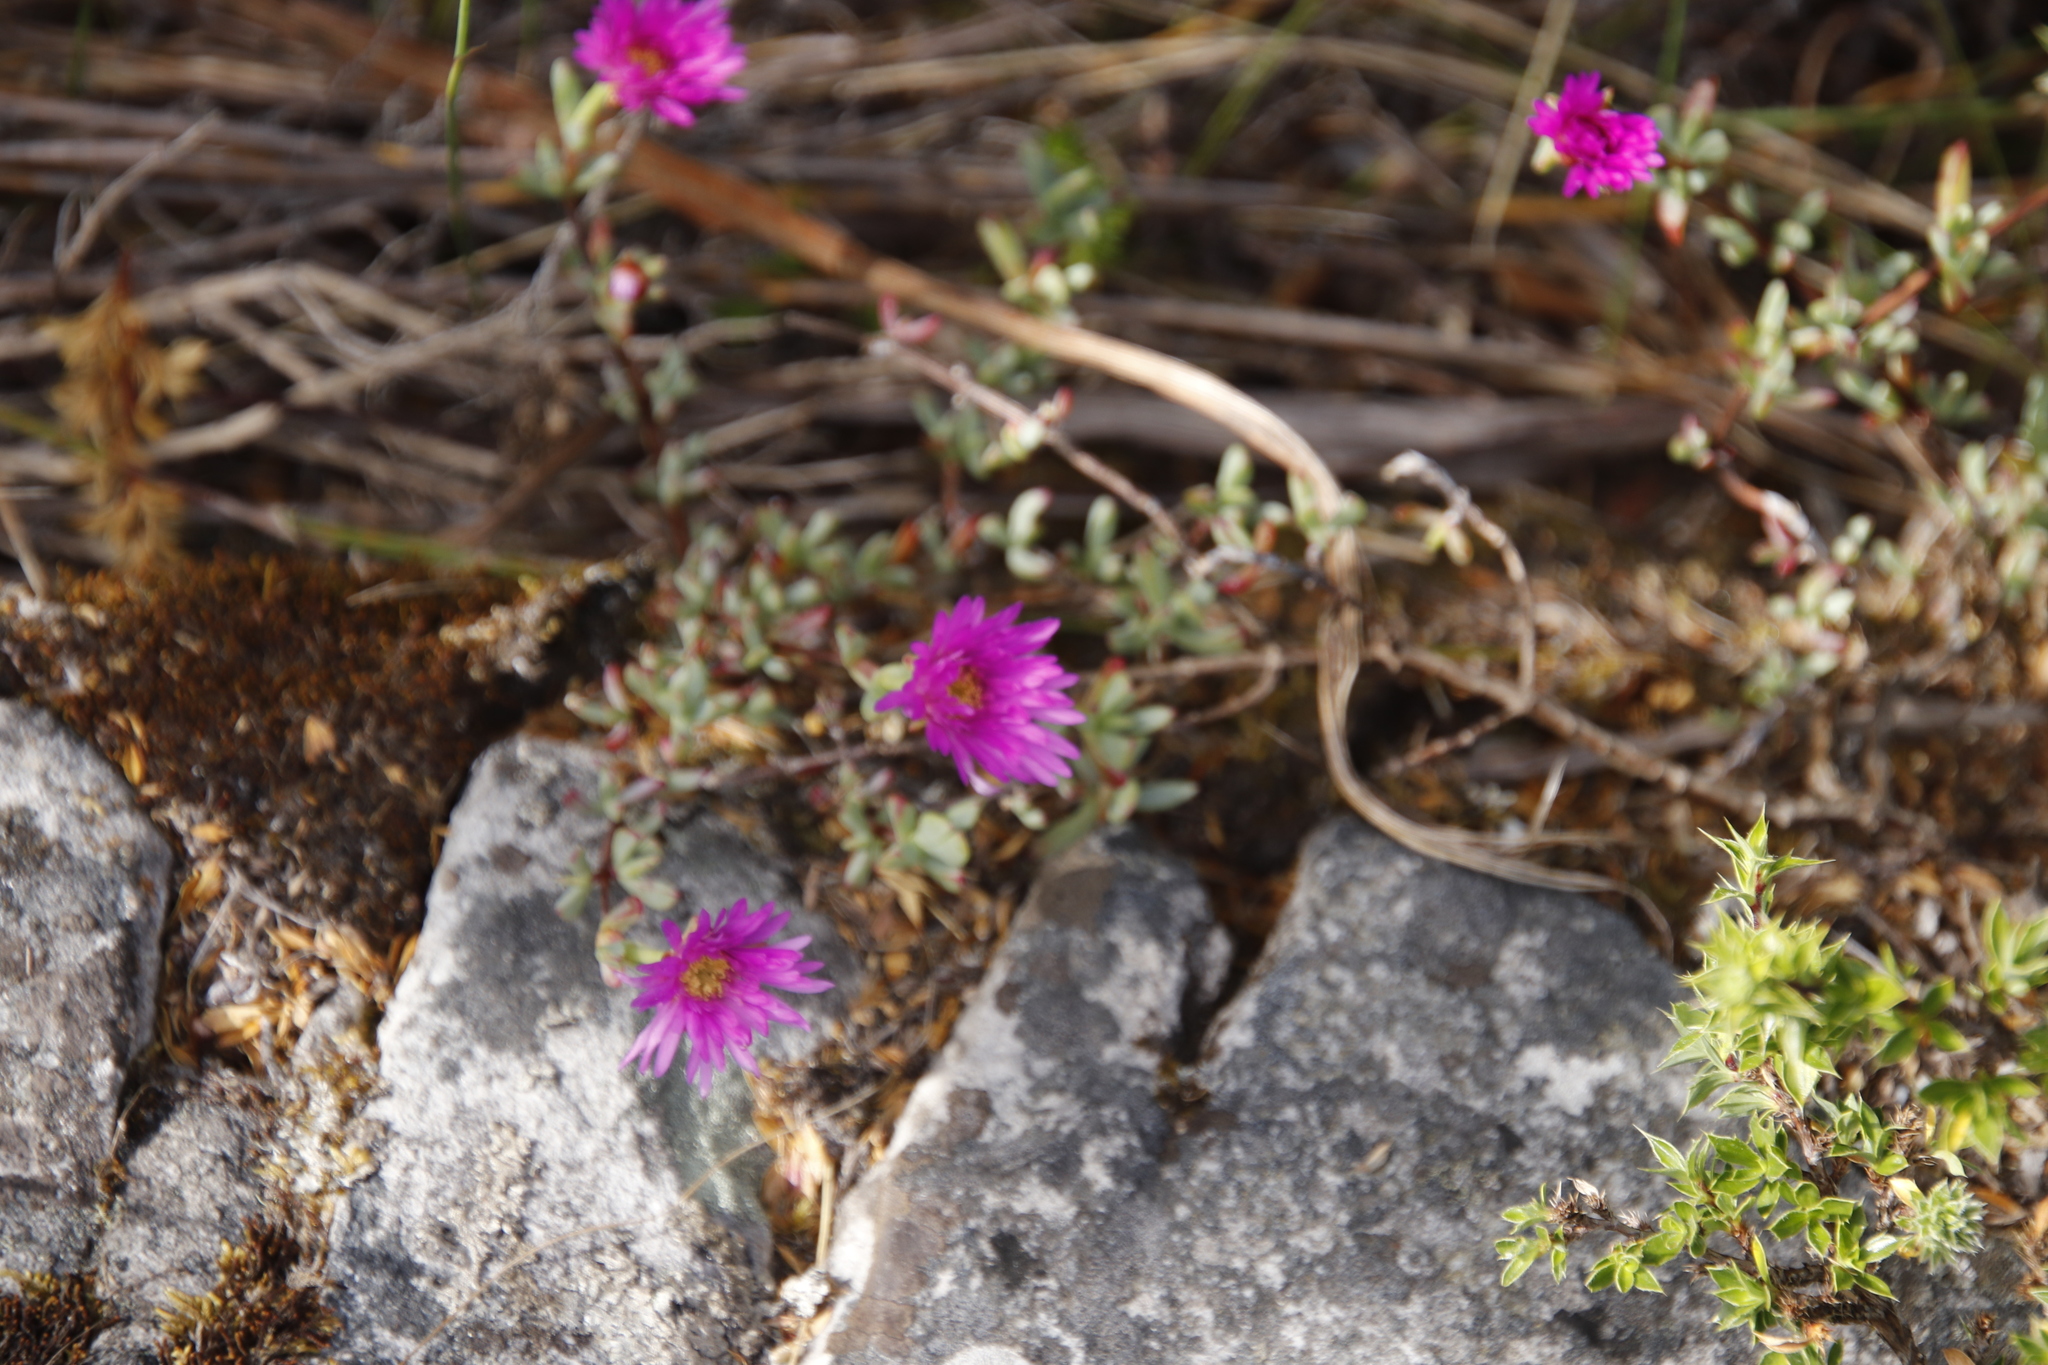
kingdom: Plantae
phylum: Tracheophyta
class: Magnoliopsida
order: Caryophyllales
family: Aizoaceae
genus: Oscularia
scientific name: Oscularia falciformis
